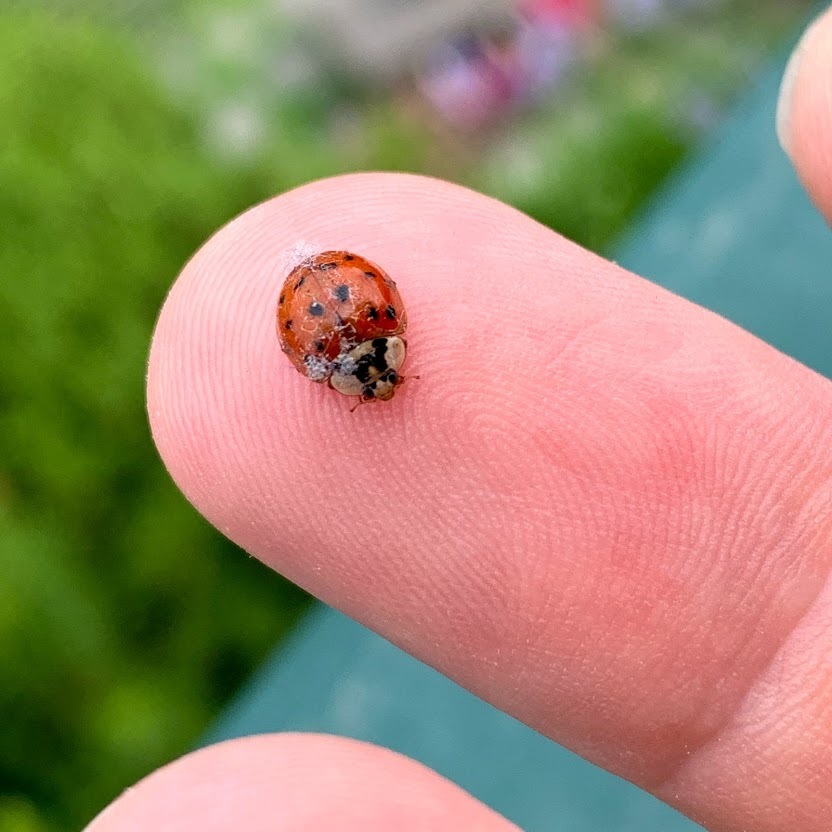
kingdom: Animalia
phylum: Arthropoda
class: Insecta
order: Coleoptera
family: Coccinellidae
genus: Harmonia
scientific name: Harmonia axyridis
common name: Harlequin ladybird
